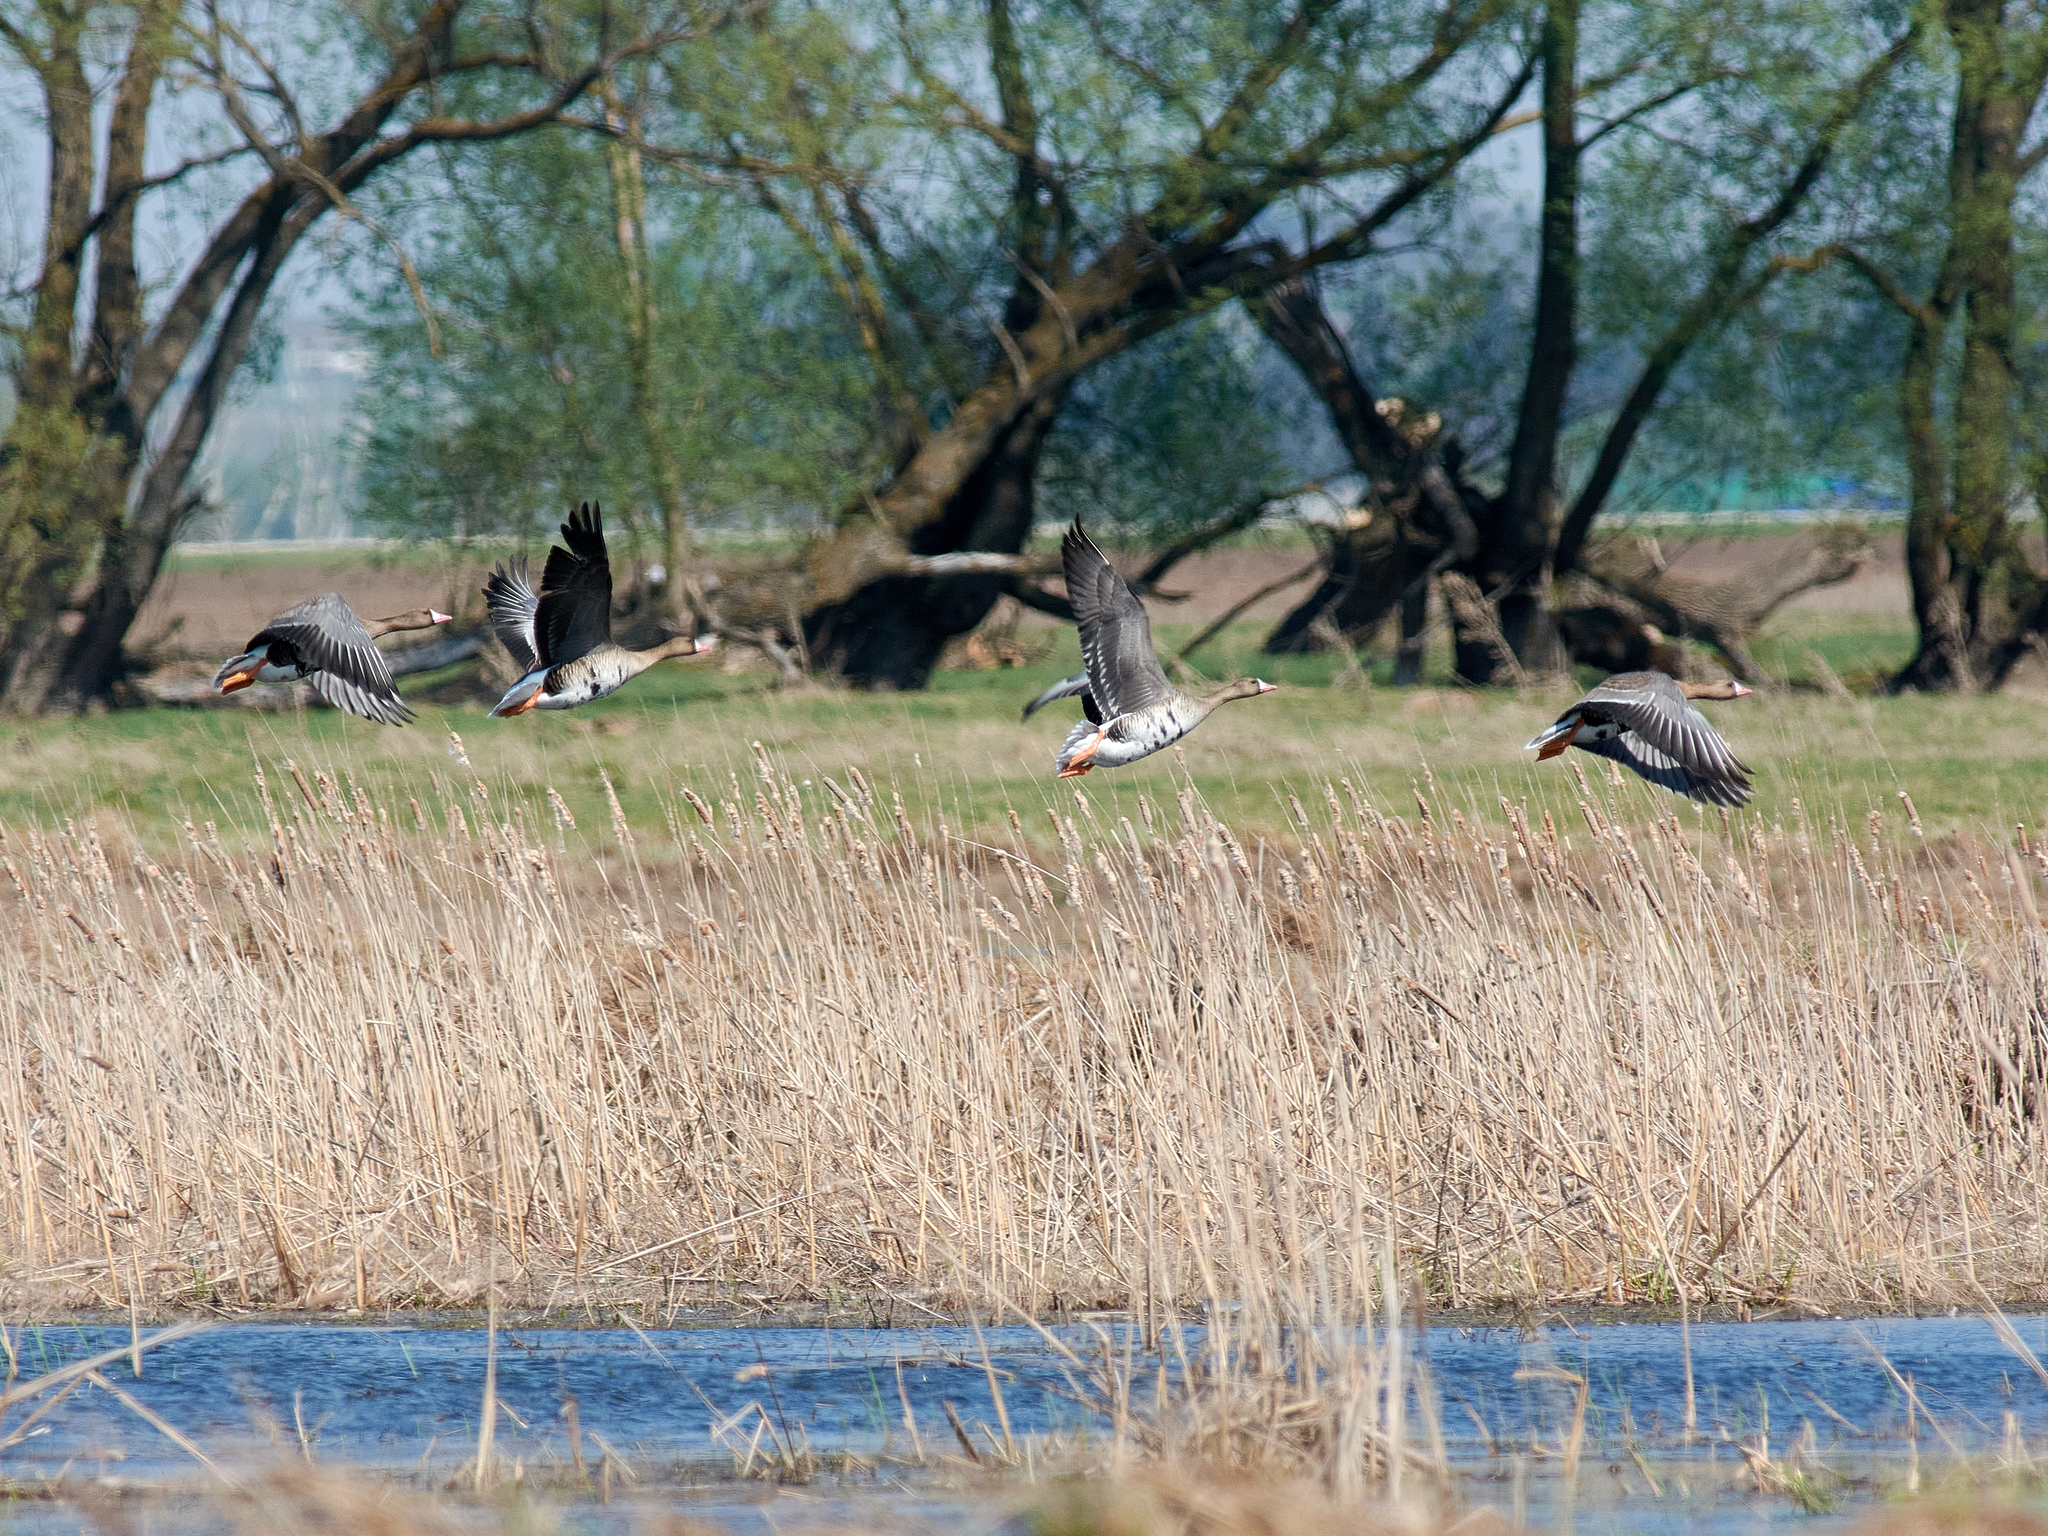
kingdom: Animalia
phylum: Chordata
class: Aves
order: Anseriformes
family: Anatidae
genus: Anser
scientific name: Anser albifrons
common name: Greater white-fronted goose
